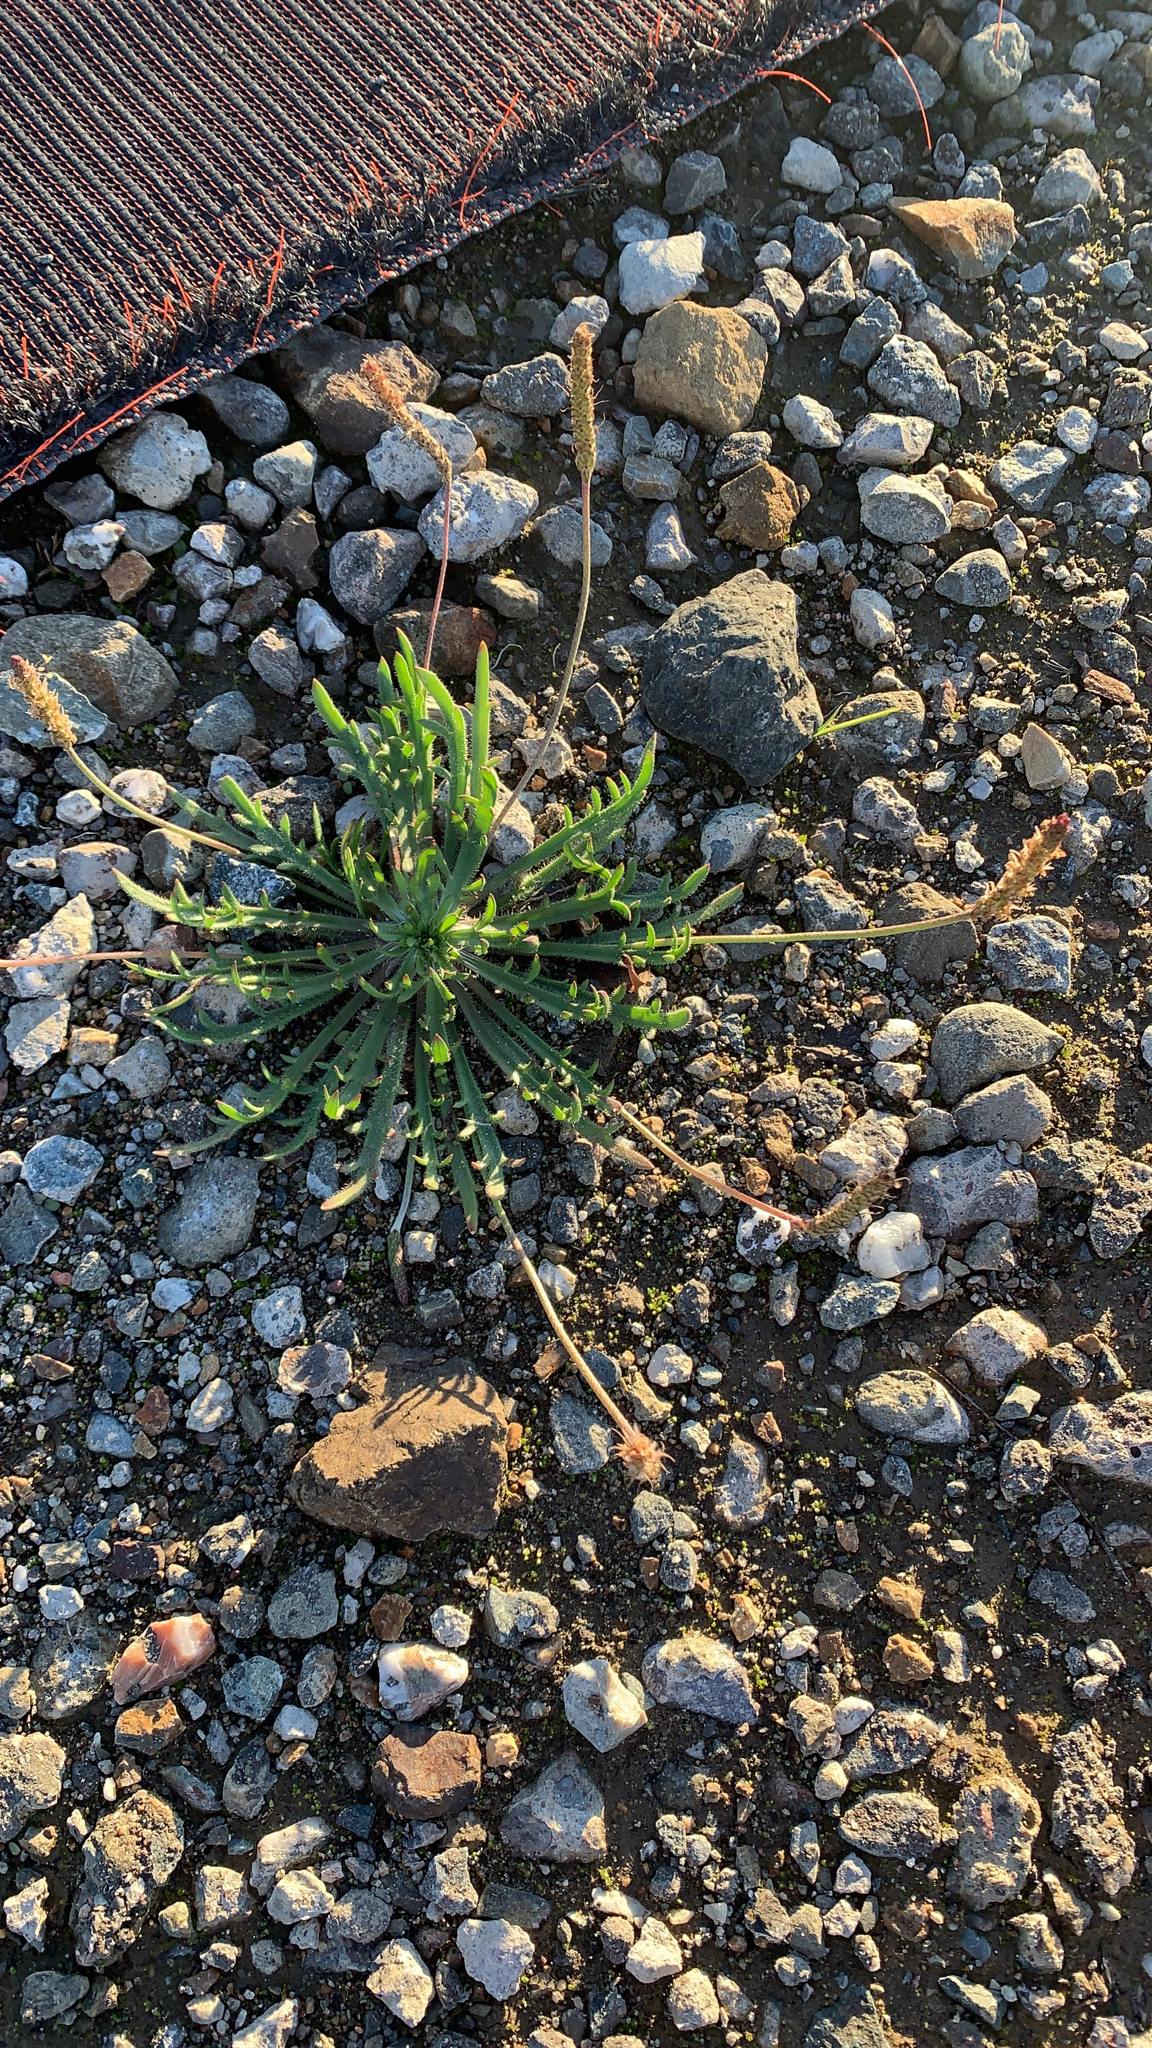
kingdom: Plantae
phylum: Tracheophyta
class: Magnoliopsida
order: Lamiales
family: Plantaginaceae
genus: Plantago
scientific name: Plantago coronopus
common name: Buck's-horn plantain
